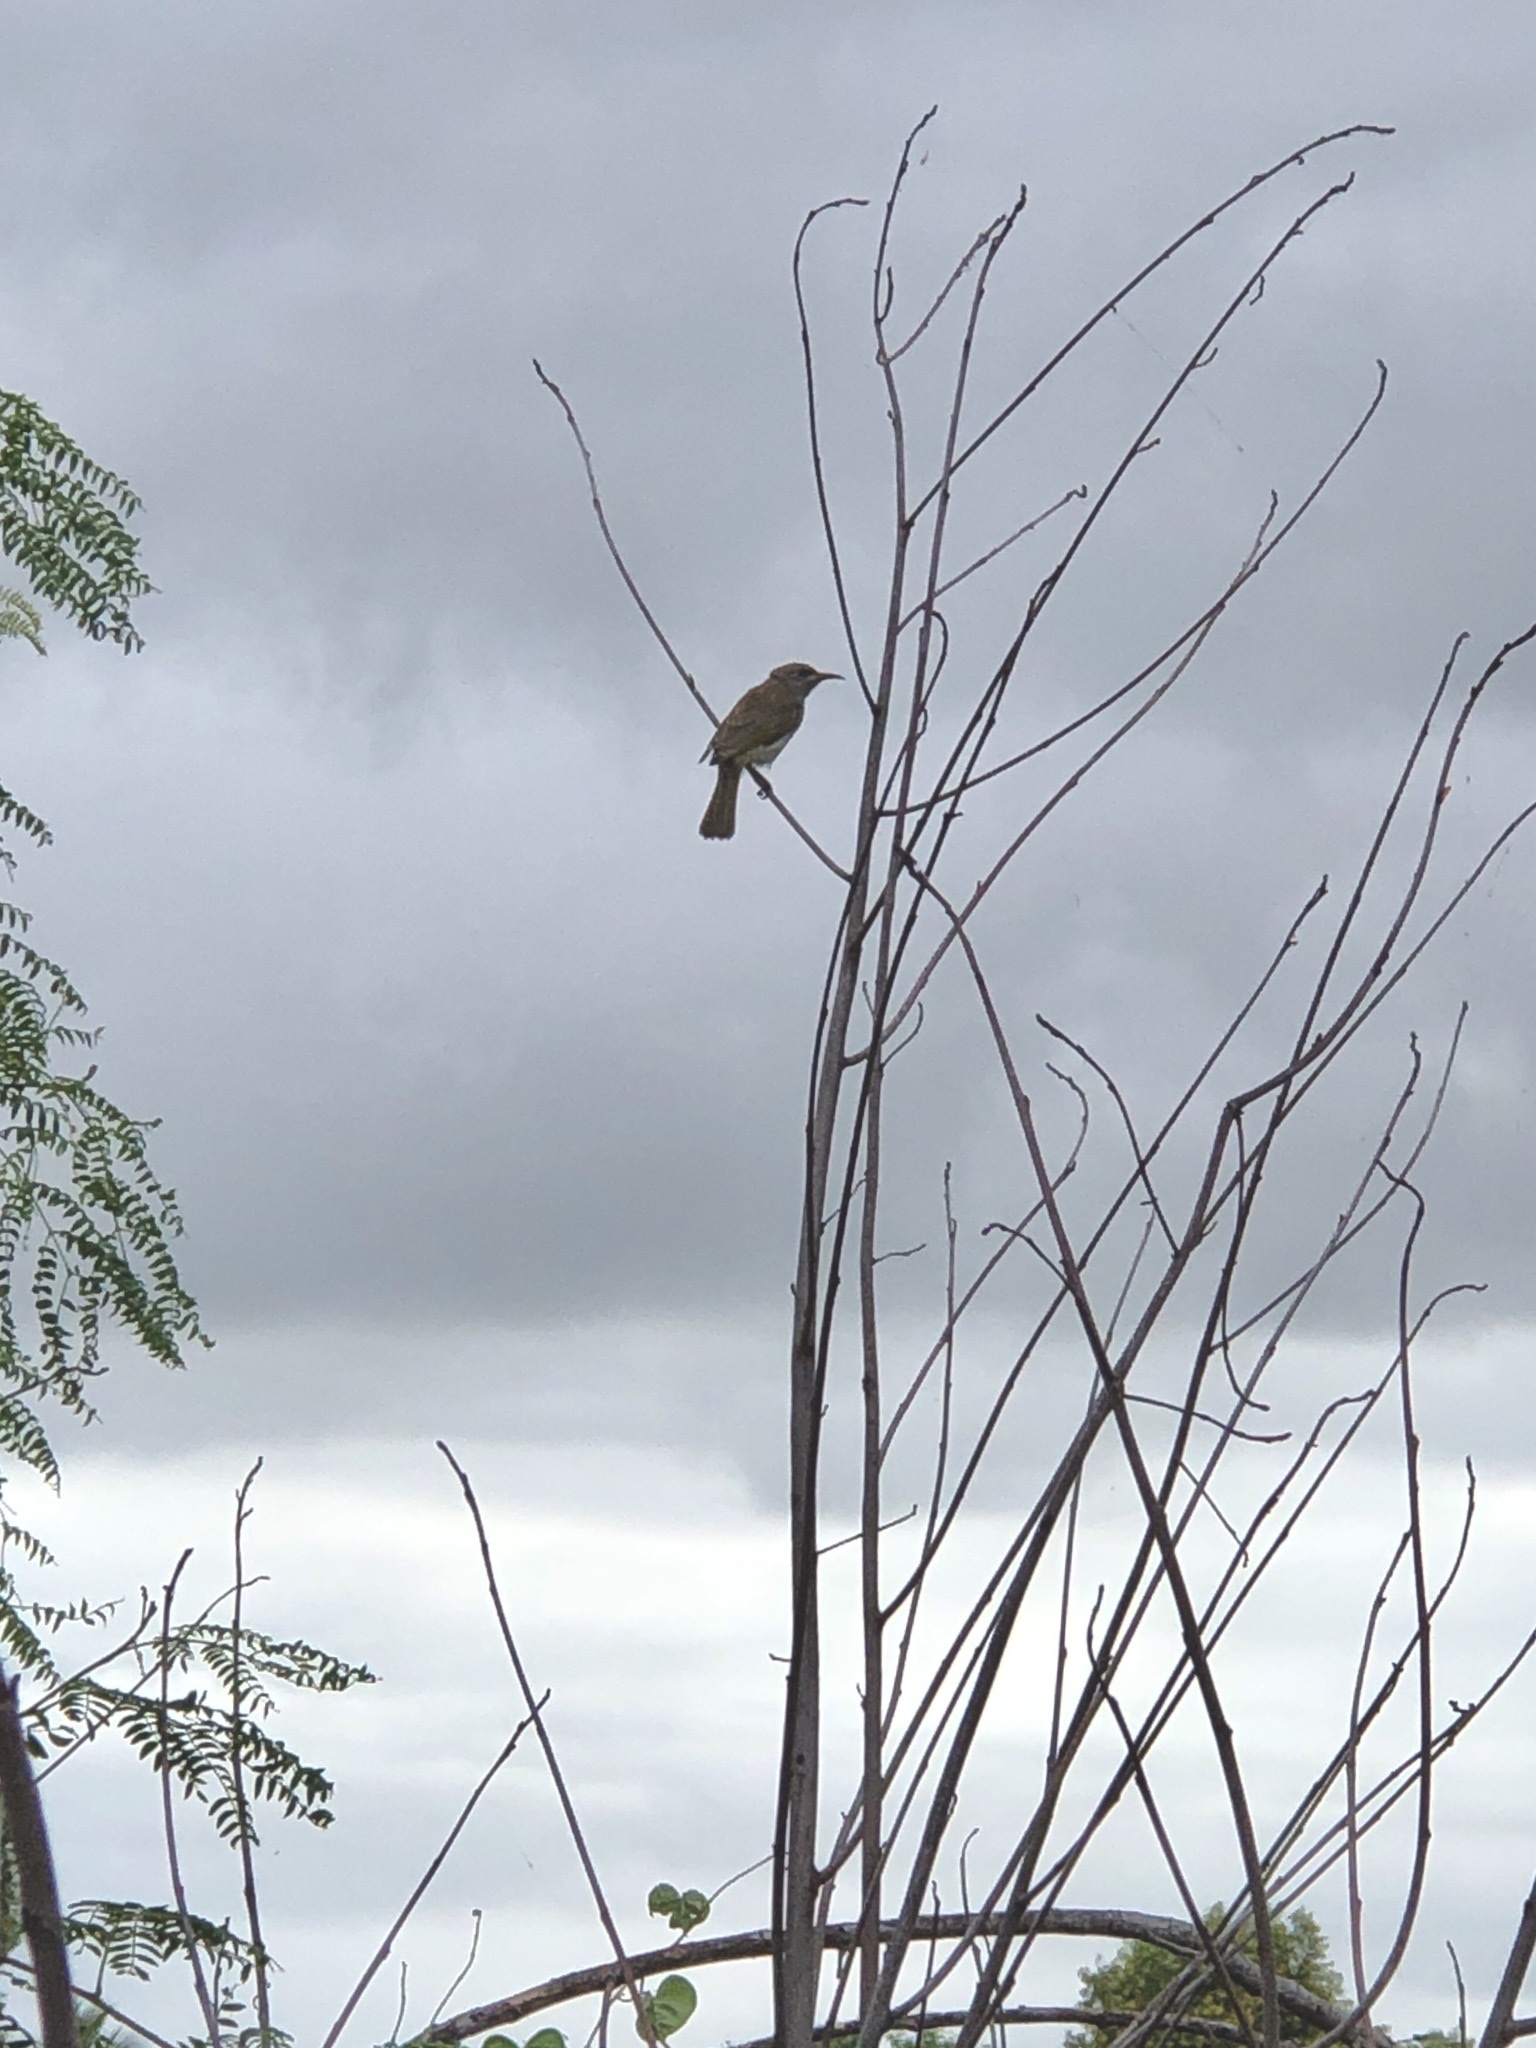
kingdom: Animalia
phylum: Chordata
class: Aves
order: Passeriformes
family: Meliphagidae
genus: Lichmera
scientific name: Lichmera indistincta
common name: Brown honeyeater
